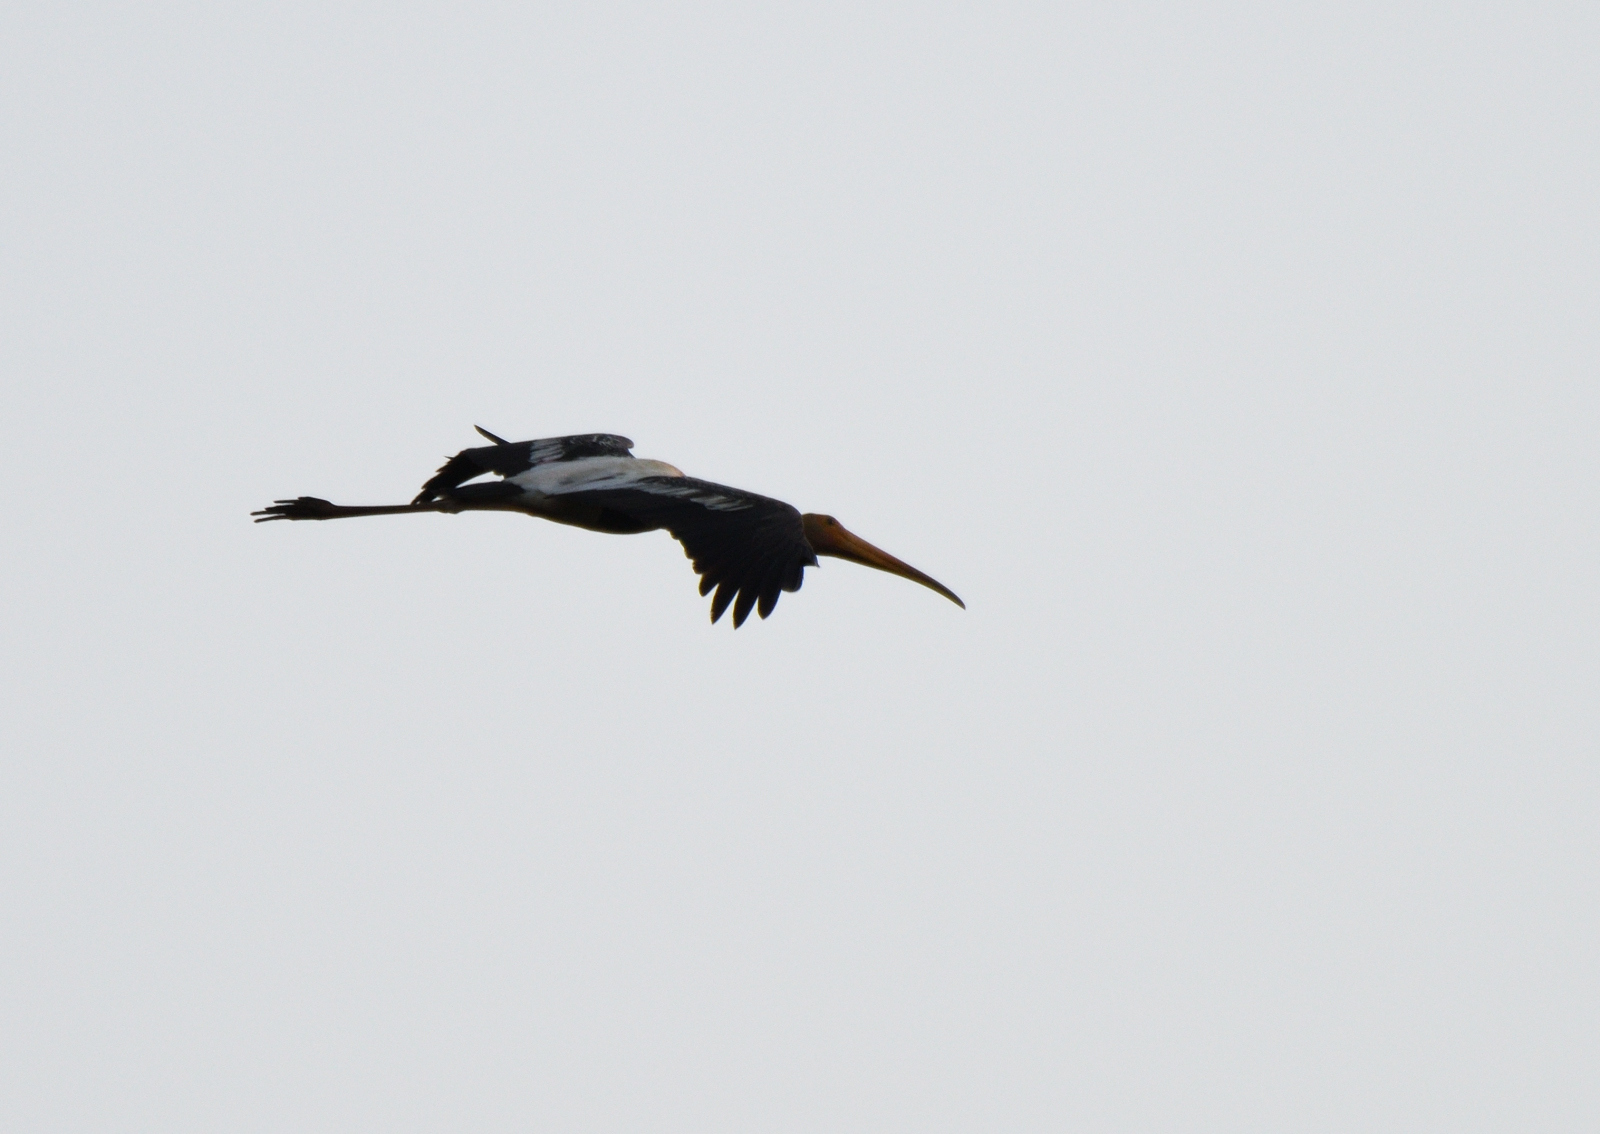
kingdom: Animalia
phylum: Chordata
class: Aves
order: Ciconiiformes
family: Ciconiidae
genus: Mycteria
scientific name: Mycteria leucocephala
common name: Painted stork
